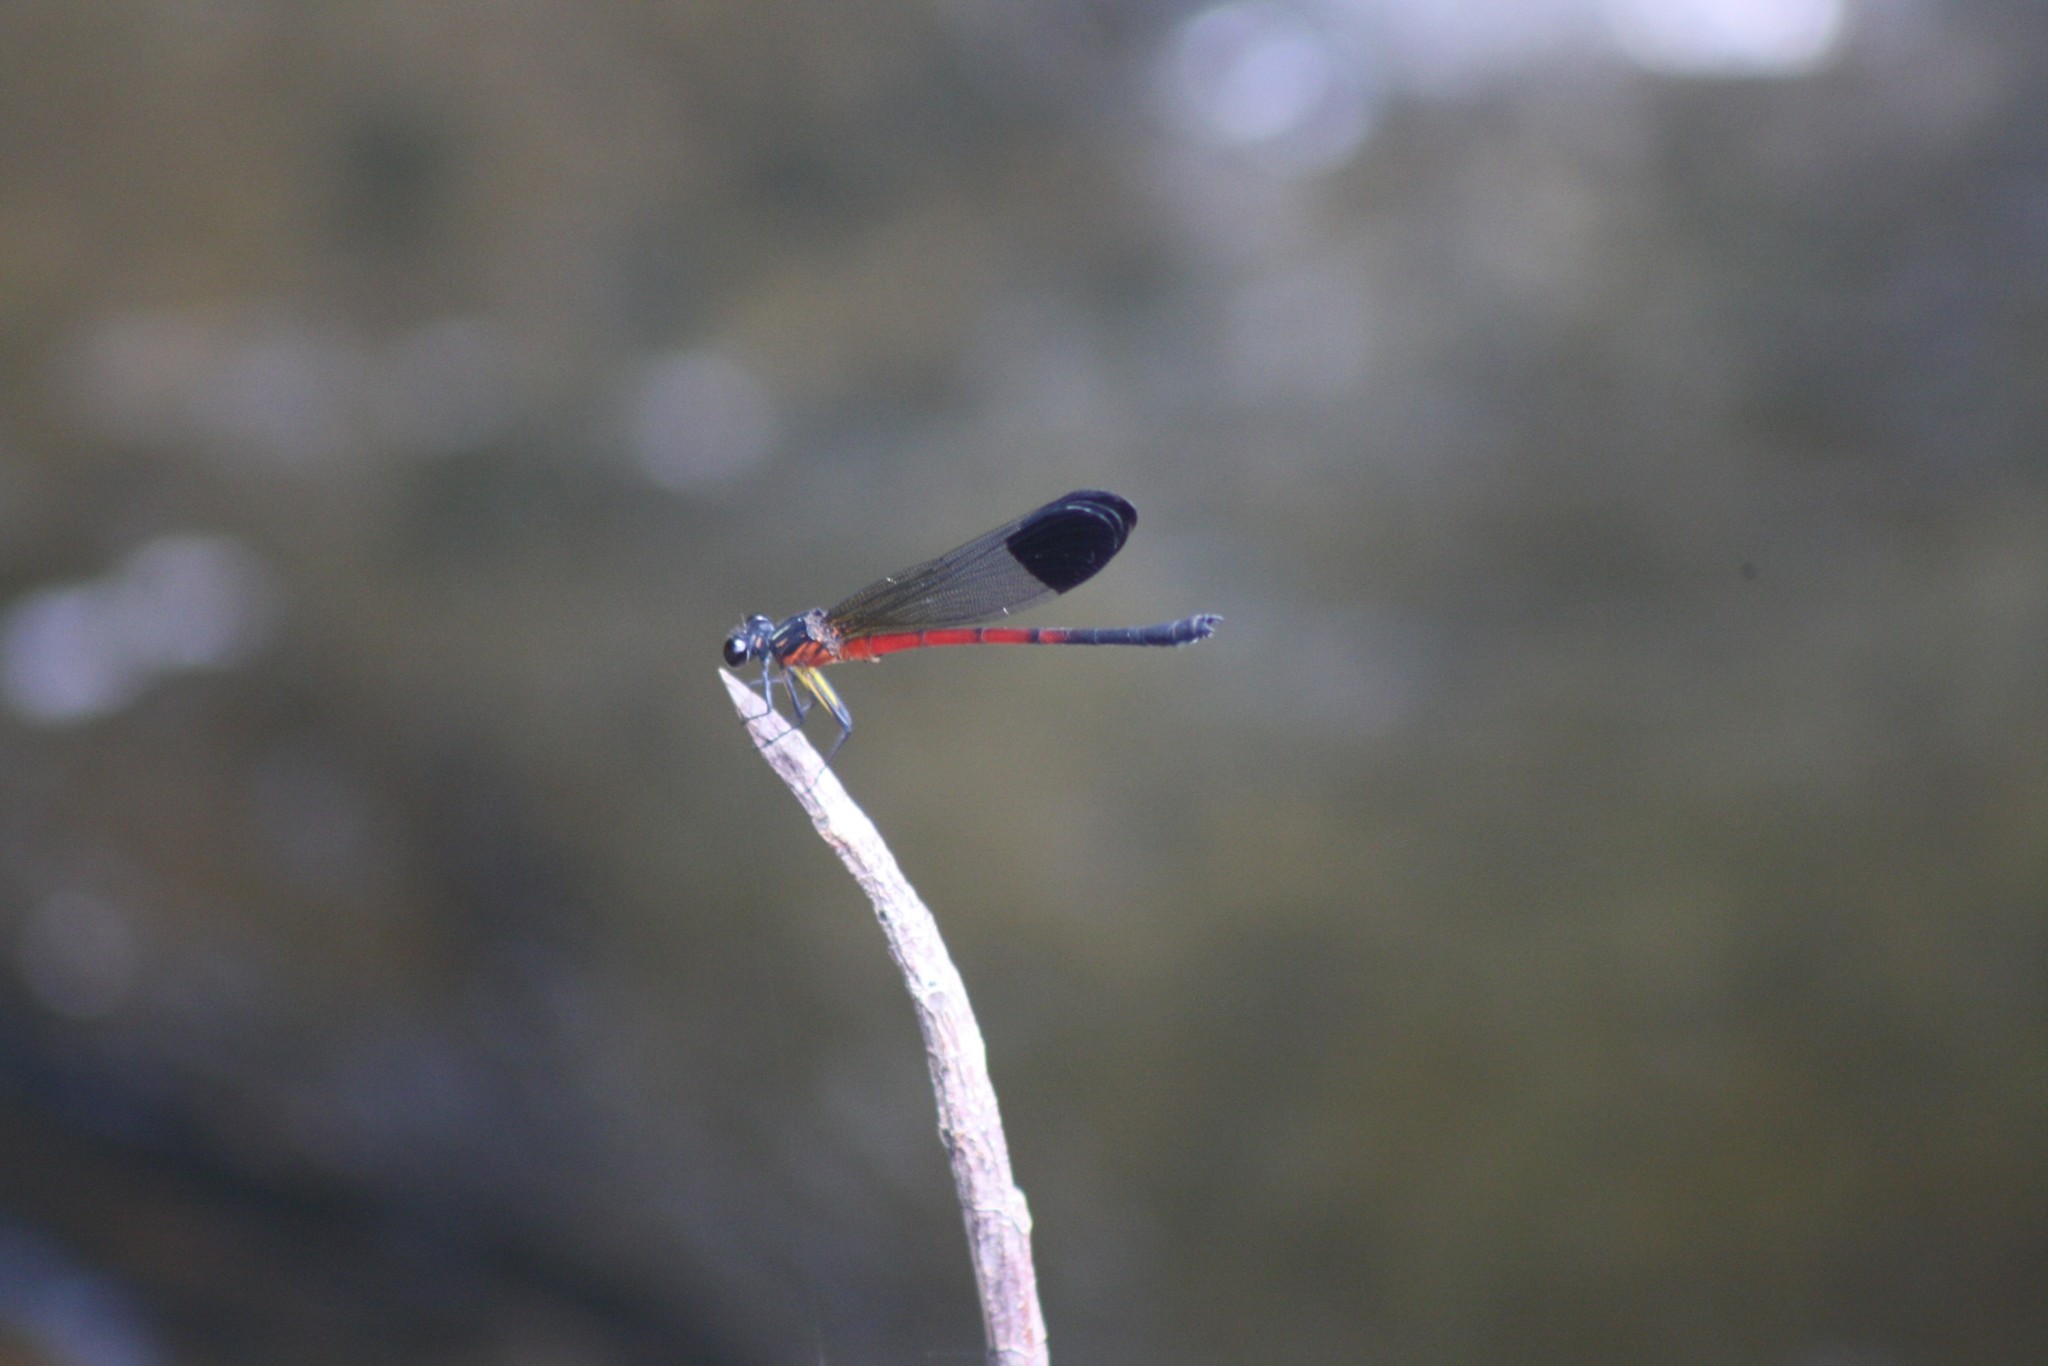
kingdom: Animalia
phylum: Arthropoda
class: Insecta
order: Odonata
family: Euphaeidae
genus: Euphaea
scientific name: Euphaea dispar
